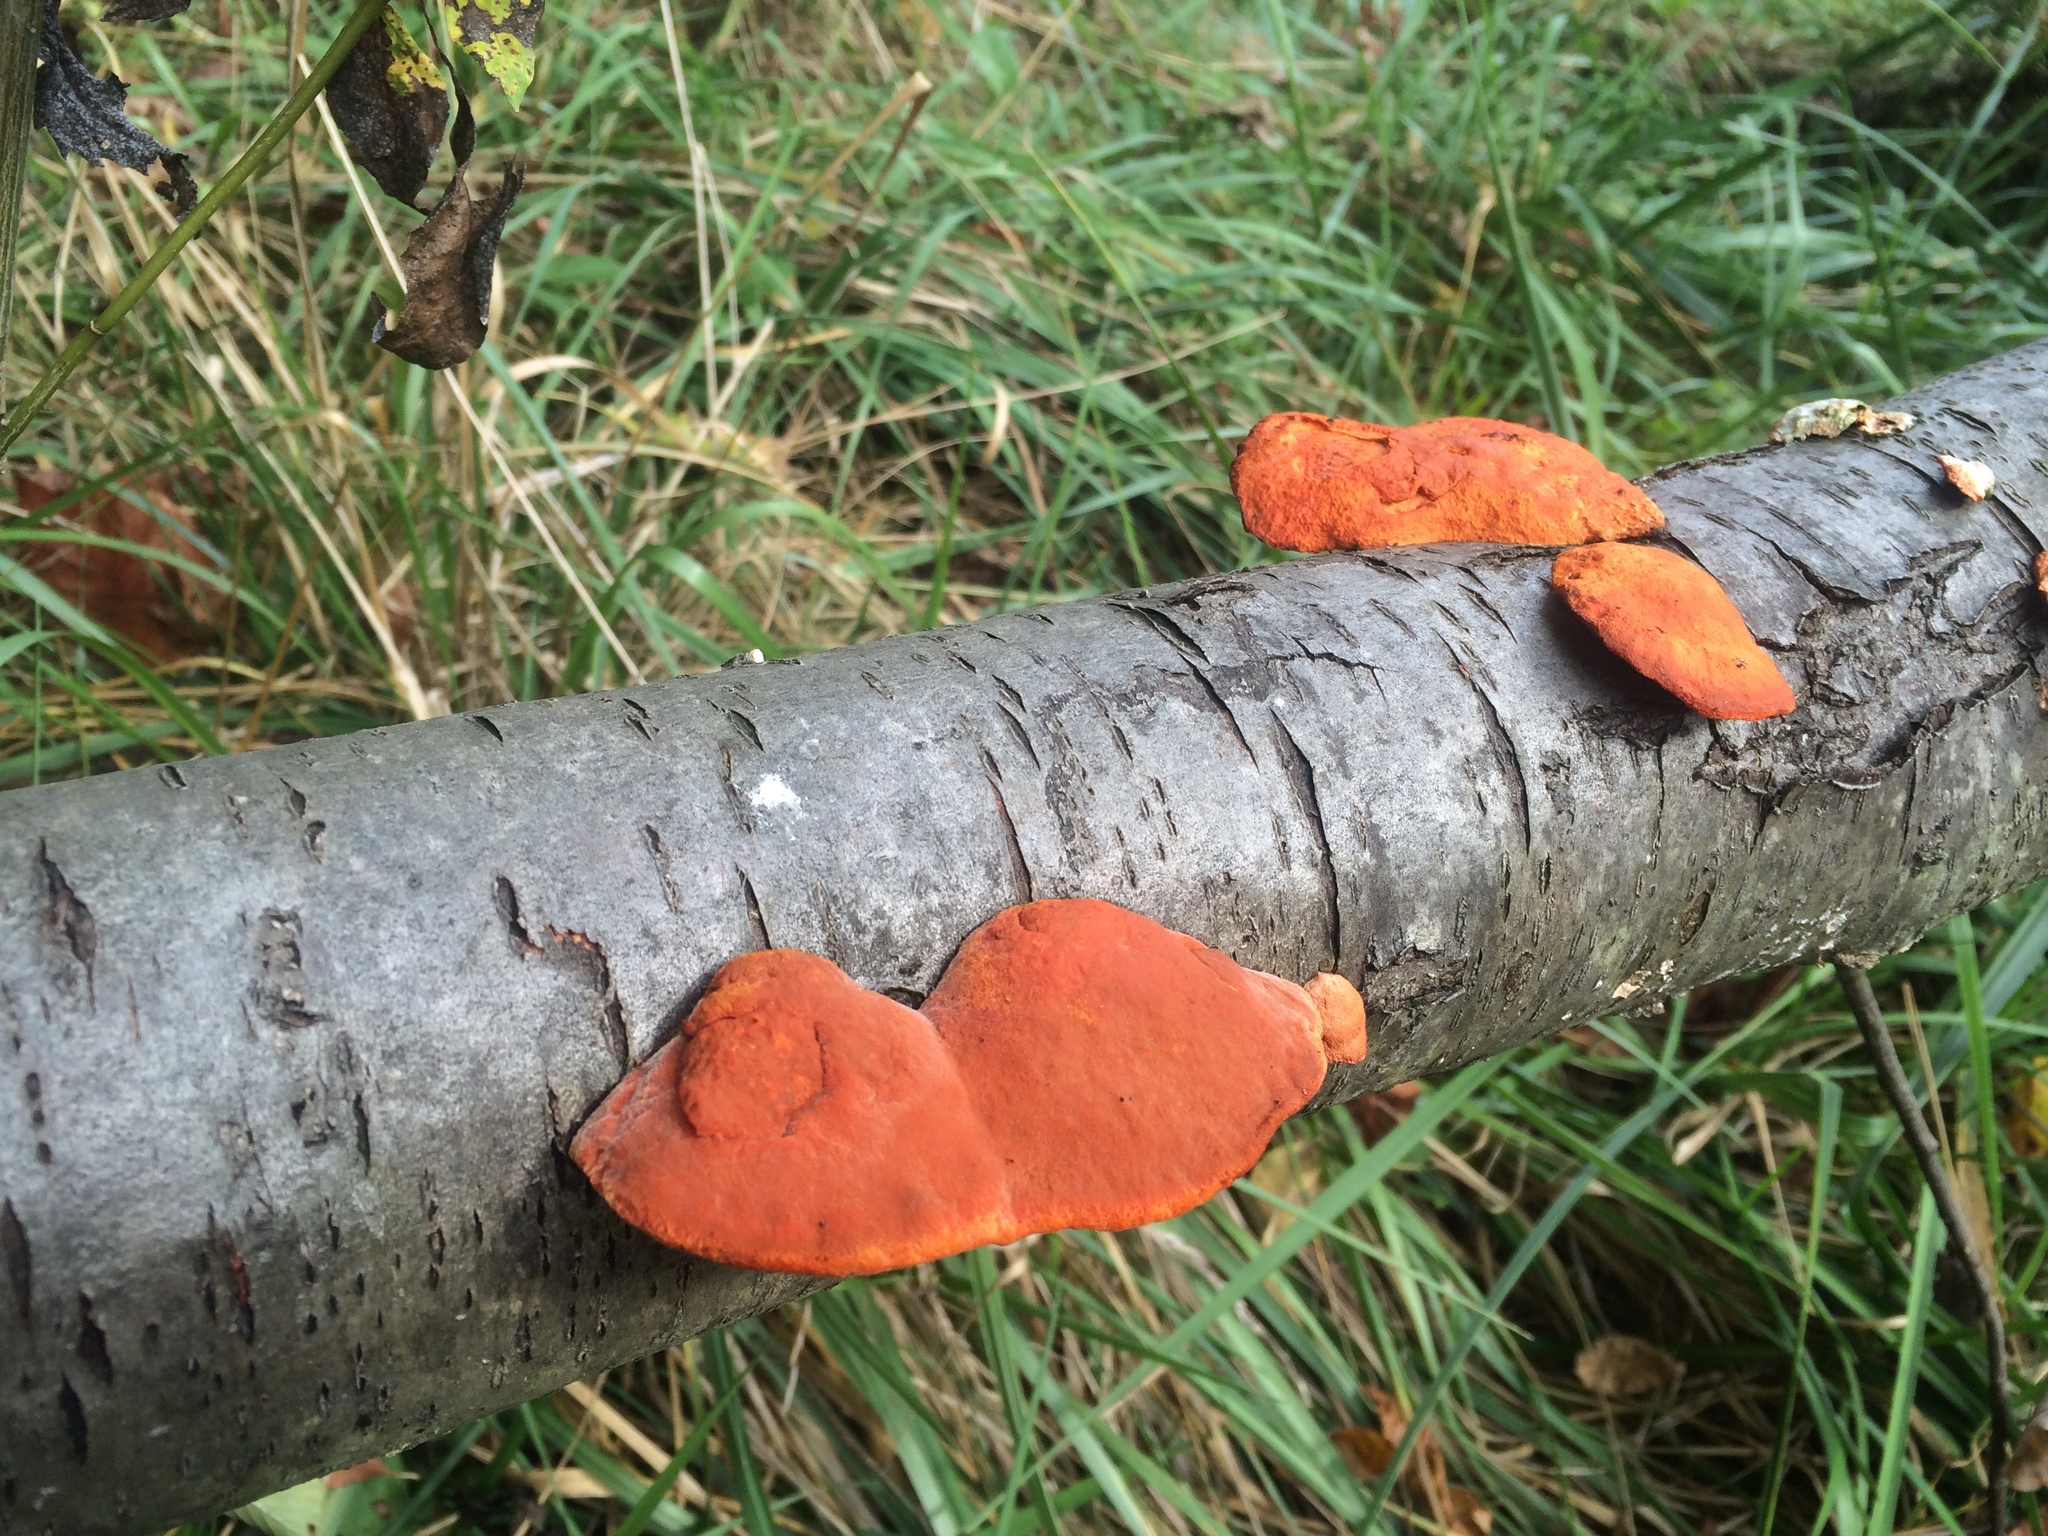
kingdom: Fungi
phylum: Basidiomycota
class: Agaricomycetes
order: Polyporales
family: Polyporaceae
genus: Trametes
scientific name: Trametes cinnabarina
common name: Northern cinnabar polypore
